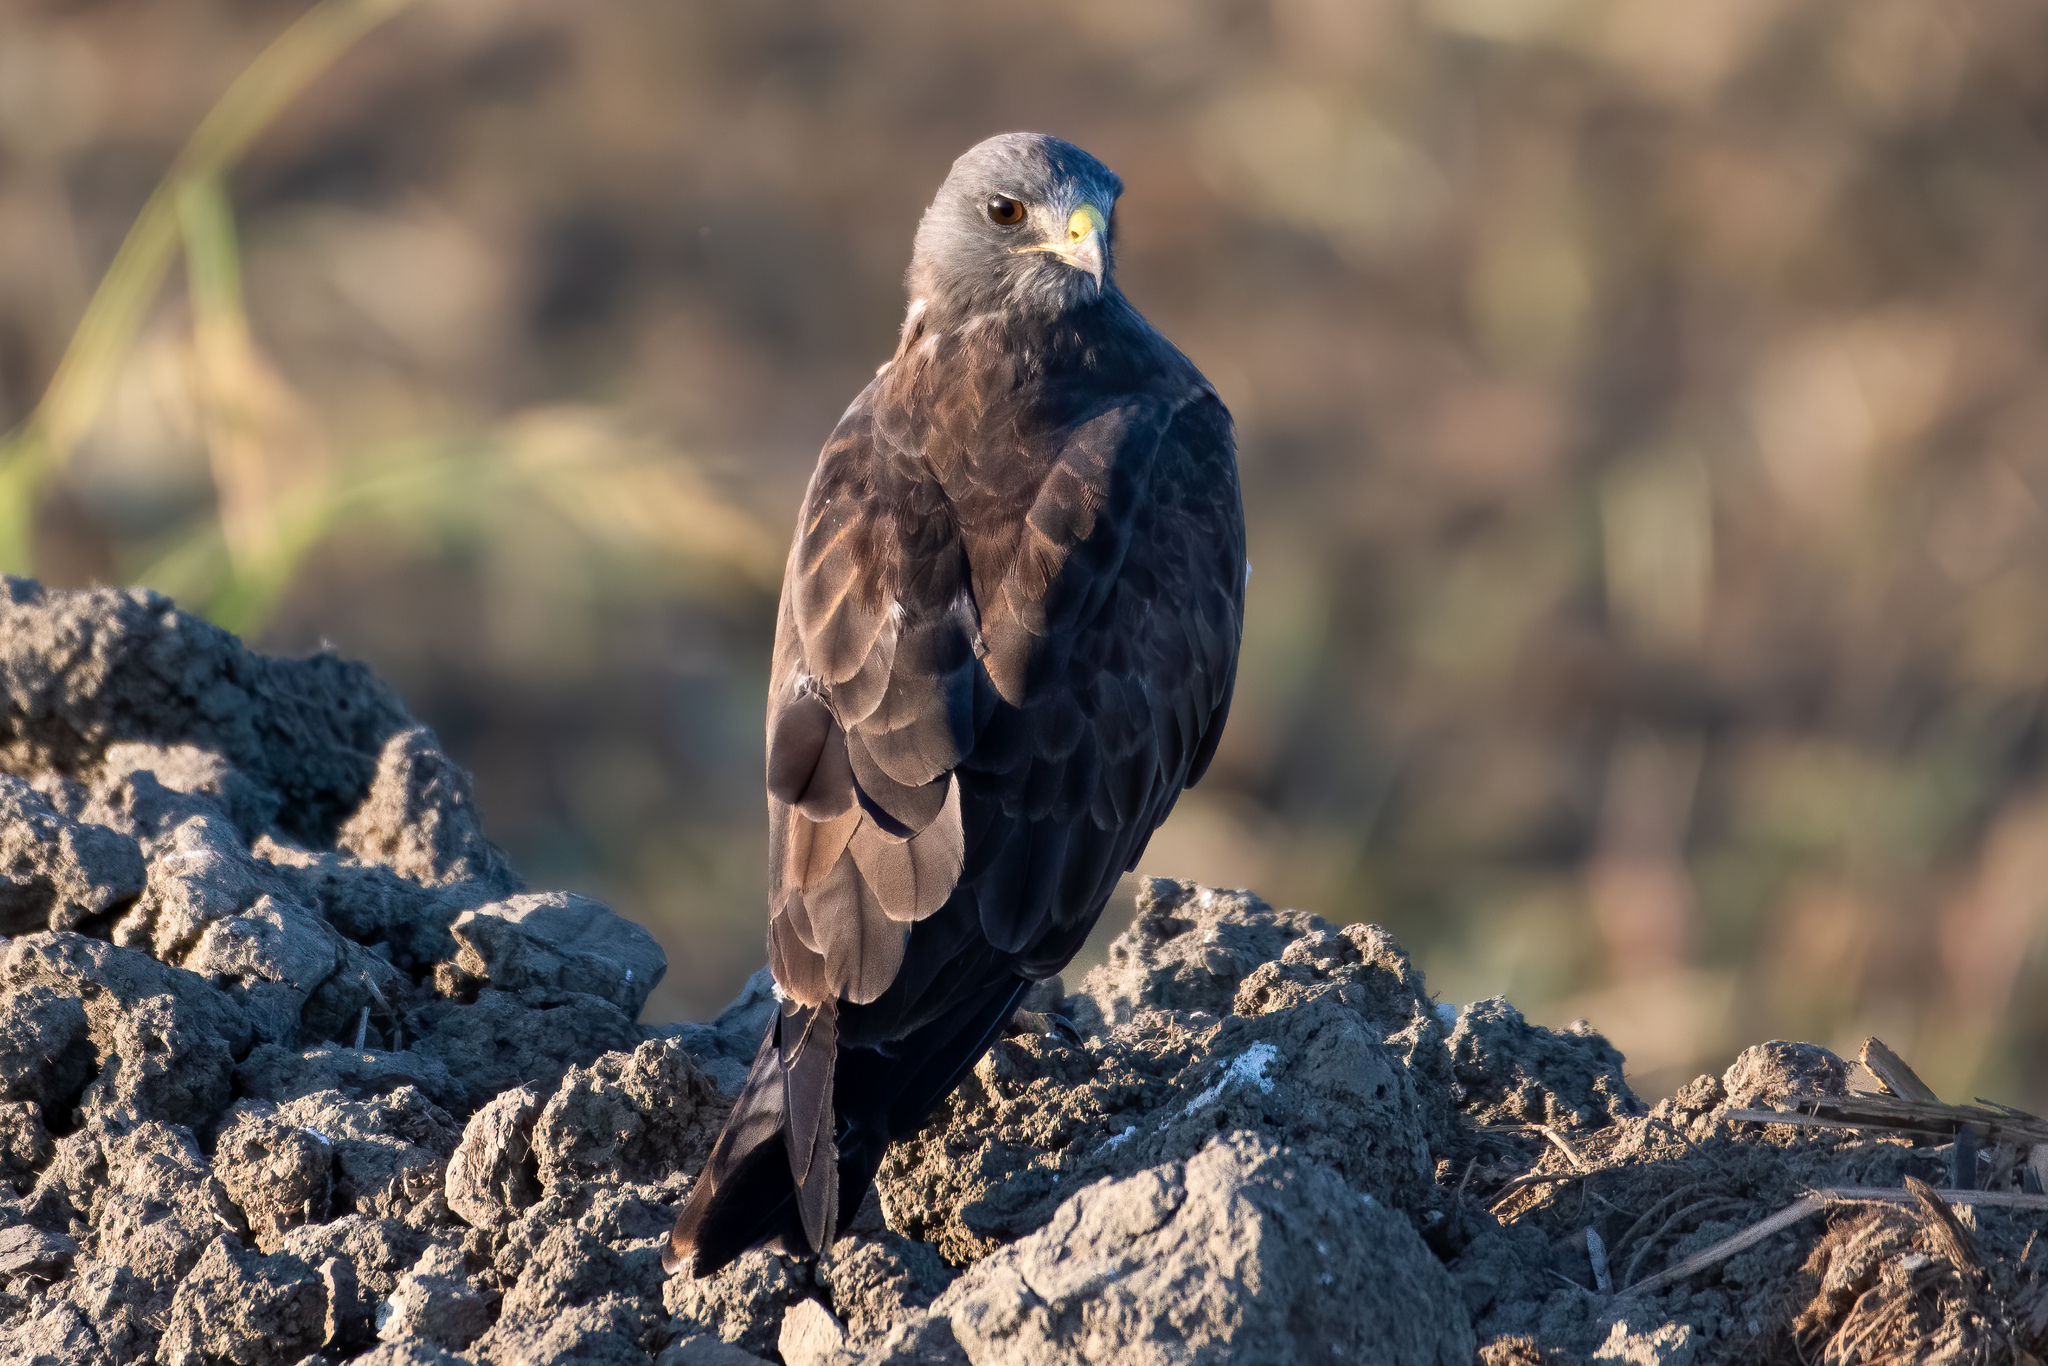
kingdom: Animalia
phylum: Chordata
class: Aves
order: Accipitriformes
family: Accipitridae
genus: Buteo
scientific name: Buteo swainsoni
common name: Swainson's hawk
